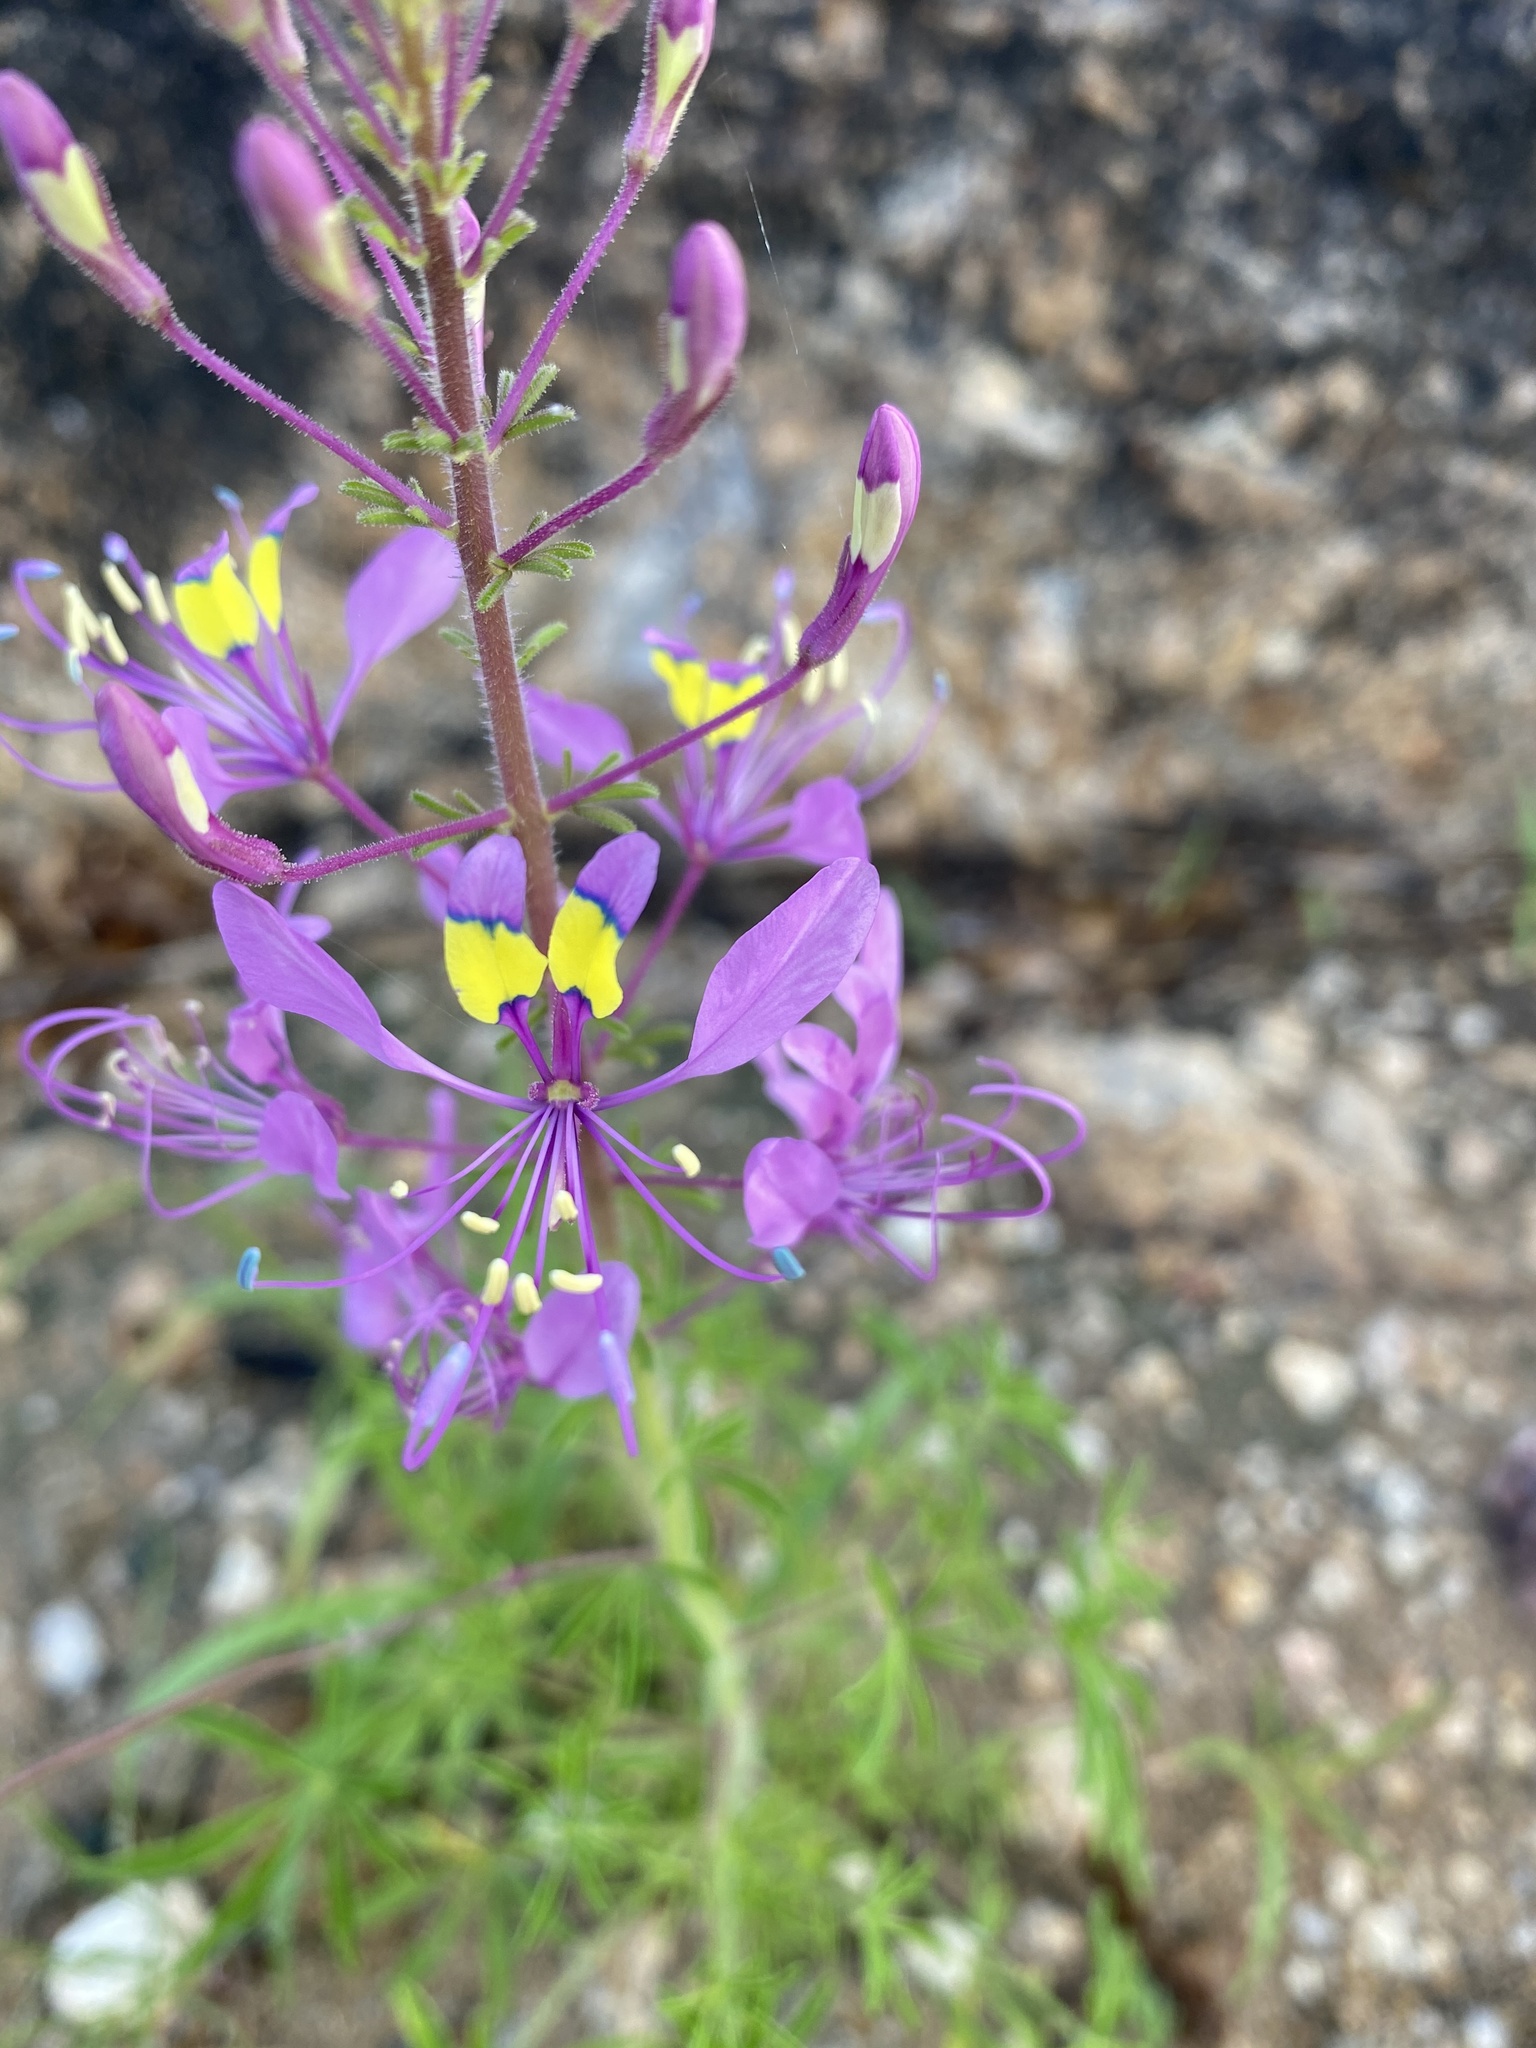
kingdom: Plantae
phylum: Tracheophyta
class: Magnoliopsida
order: Brassicales
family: Cleomaceae
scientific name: Cleomaceae
